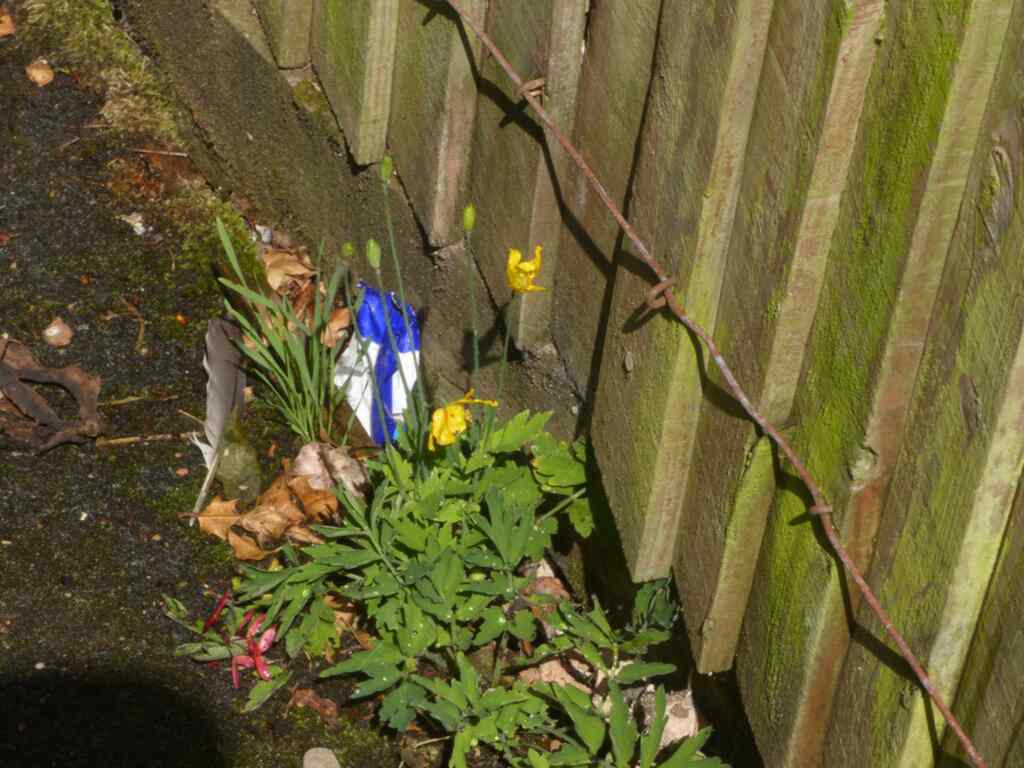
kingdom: Plantae
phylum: Tracheophyta
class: Magnoliopsida
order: Ranunculales
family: Papaveraceae
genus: Papaver
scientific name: Papaver cambricum
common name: Poppy
